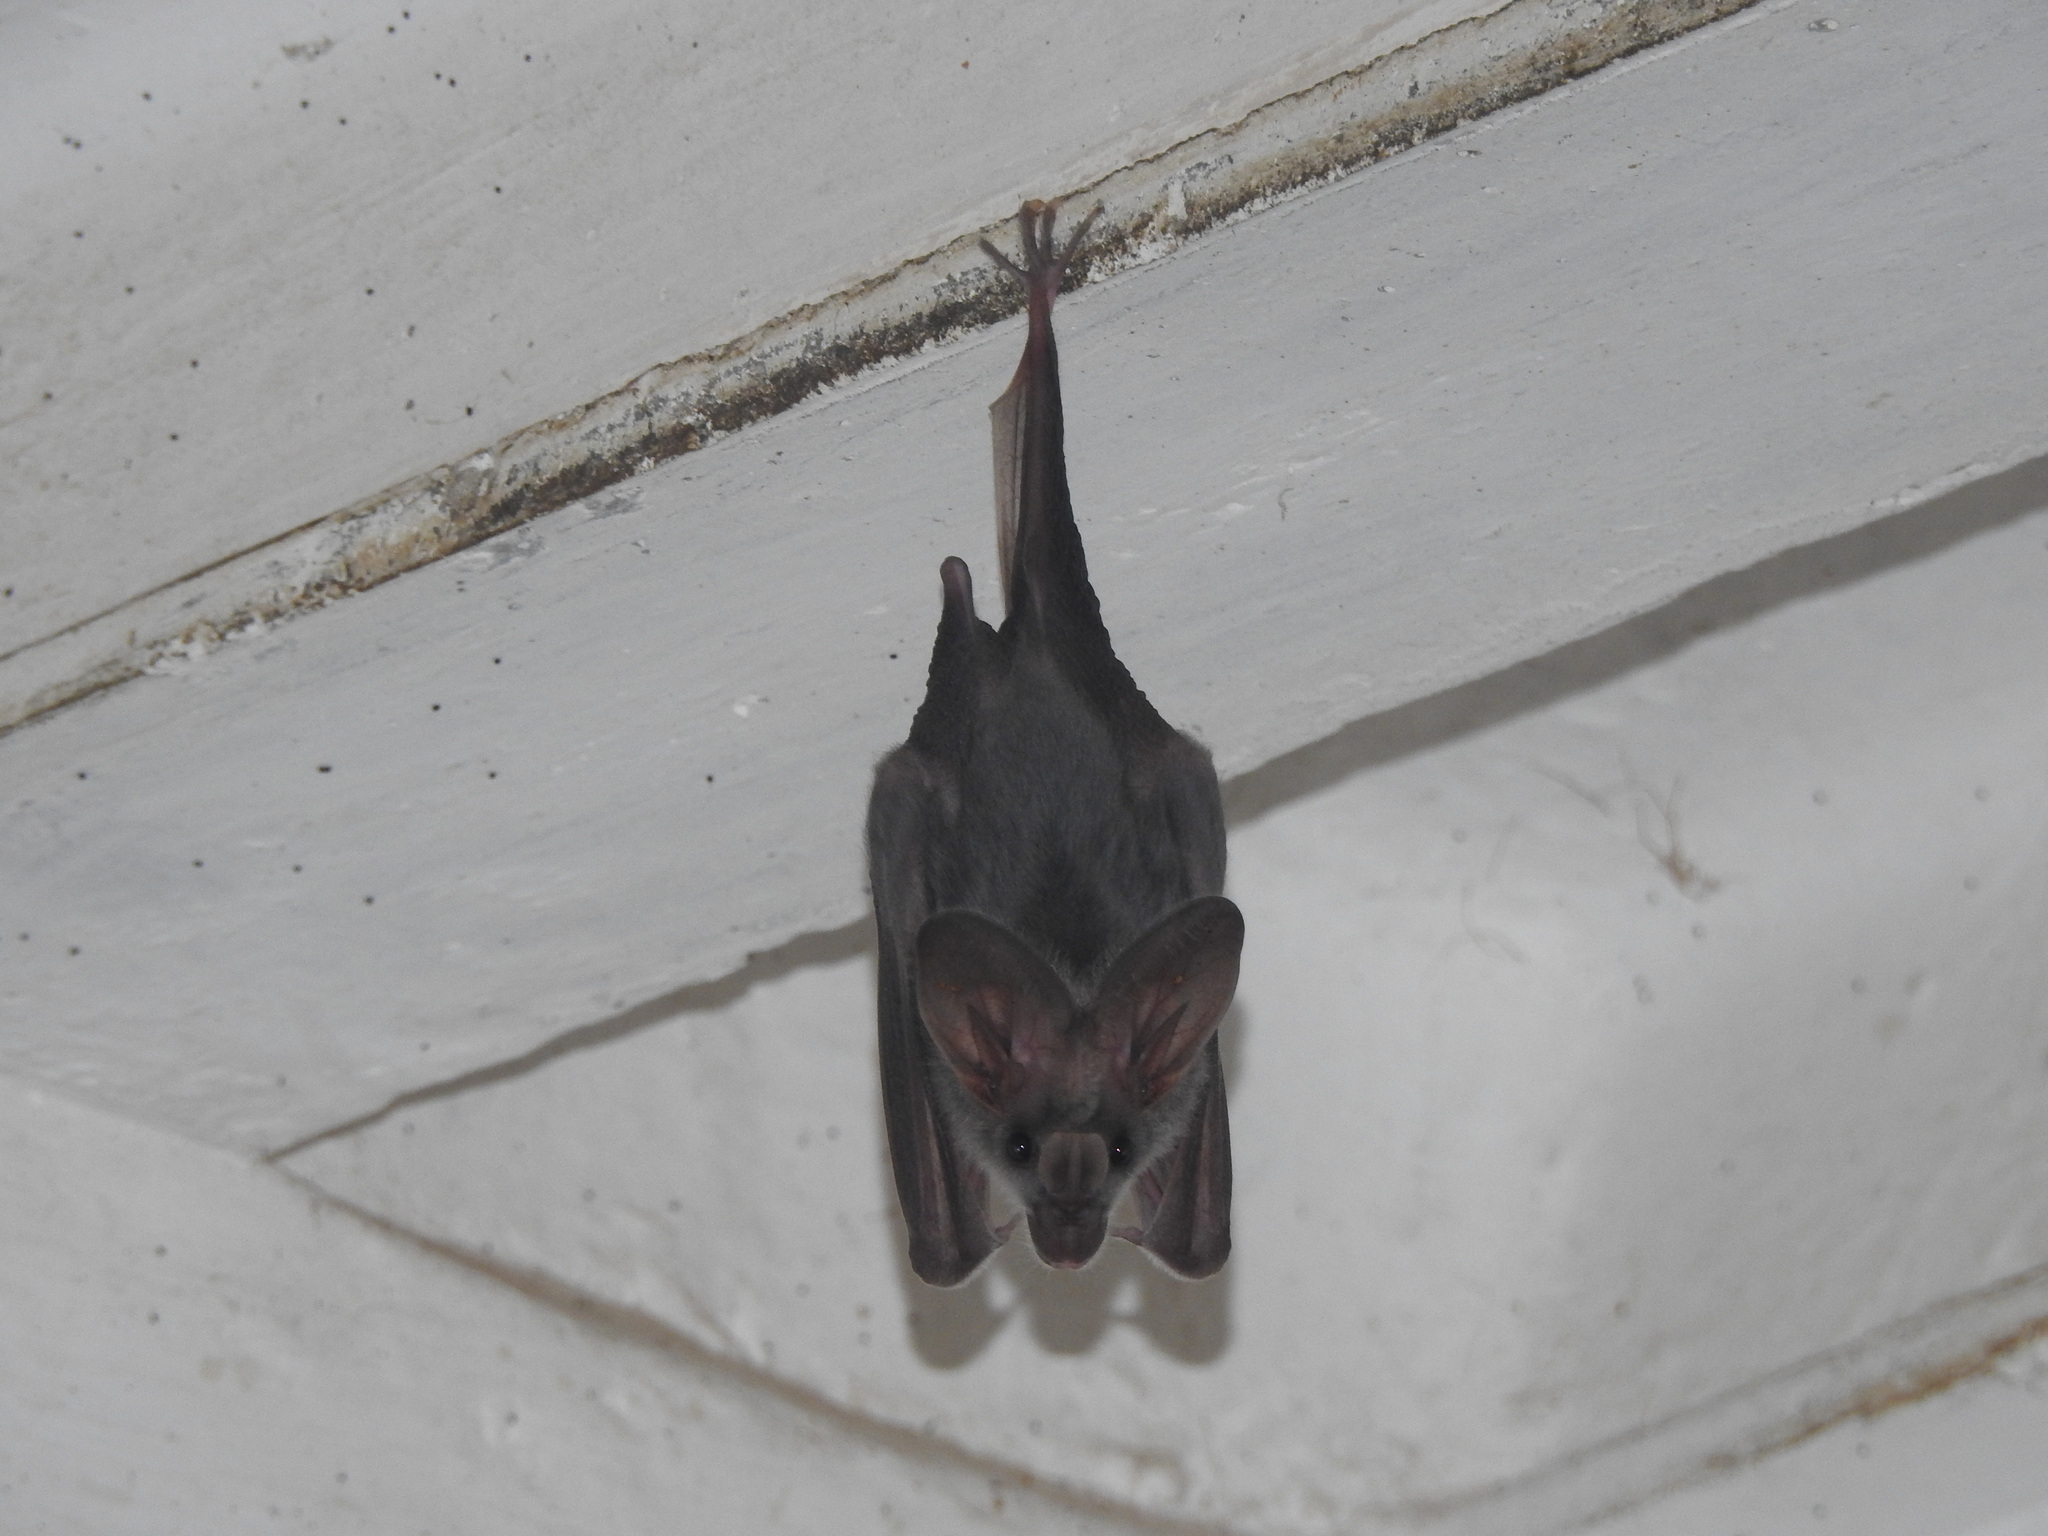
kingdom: Animalia
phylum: Chordata
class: Mammalia
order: Chiroptera
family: Megadermatidae
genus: Lyroderma
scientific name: Lyroderma lyra
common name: Greater false vampire bat
